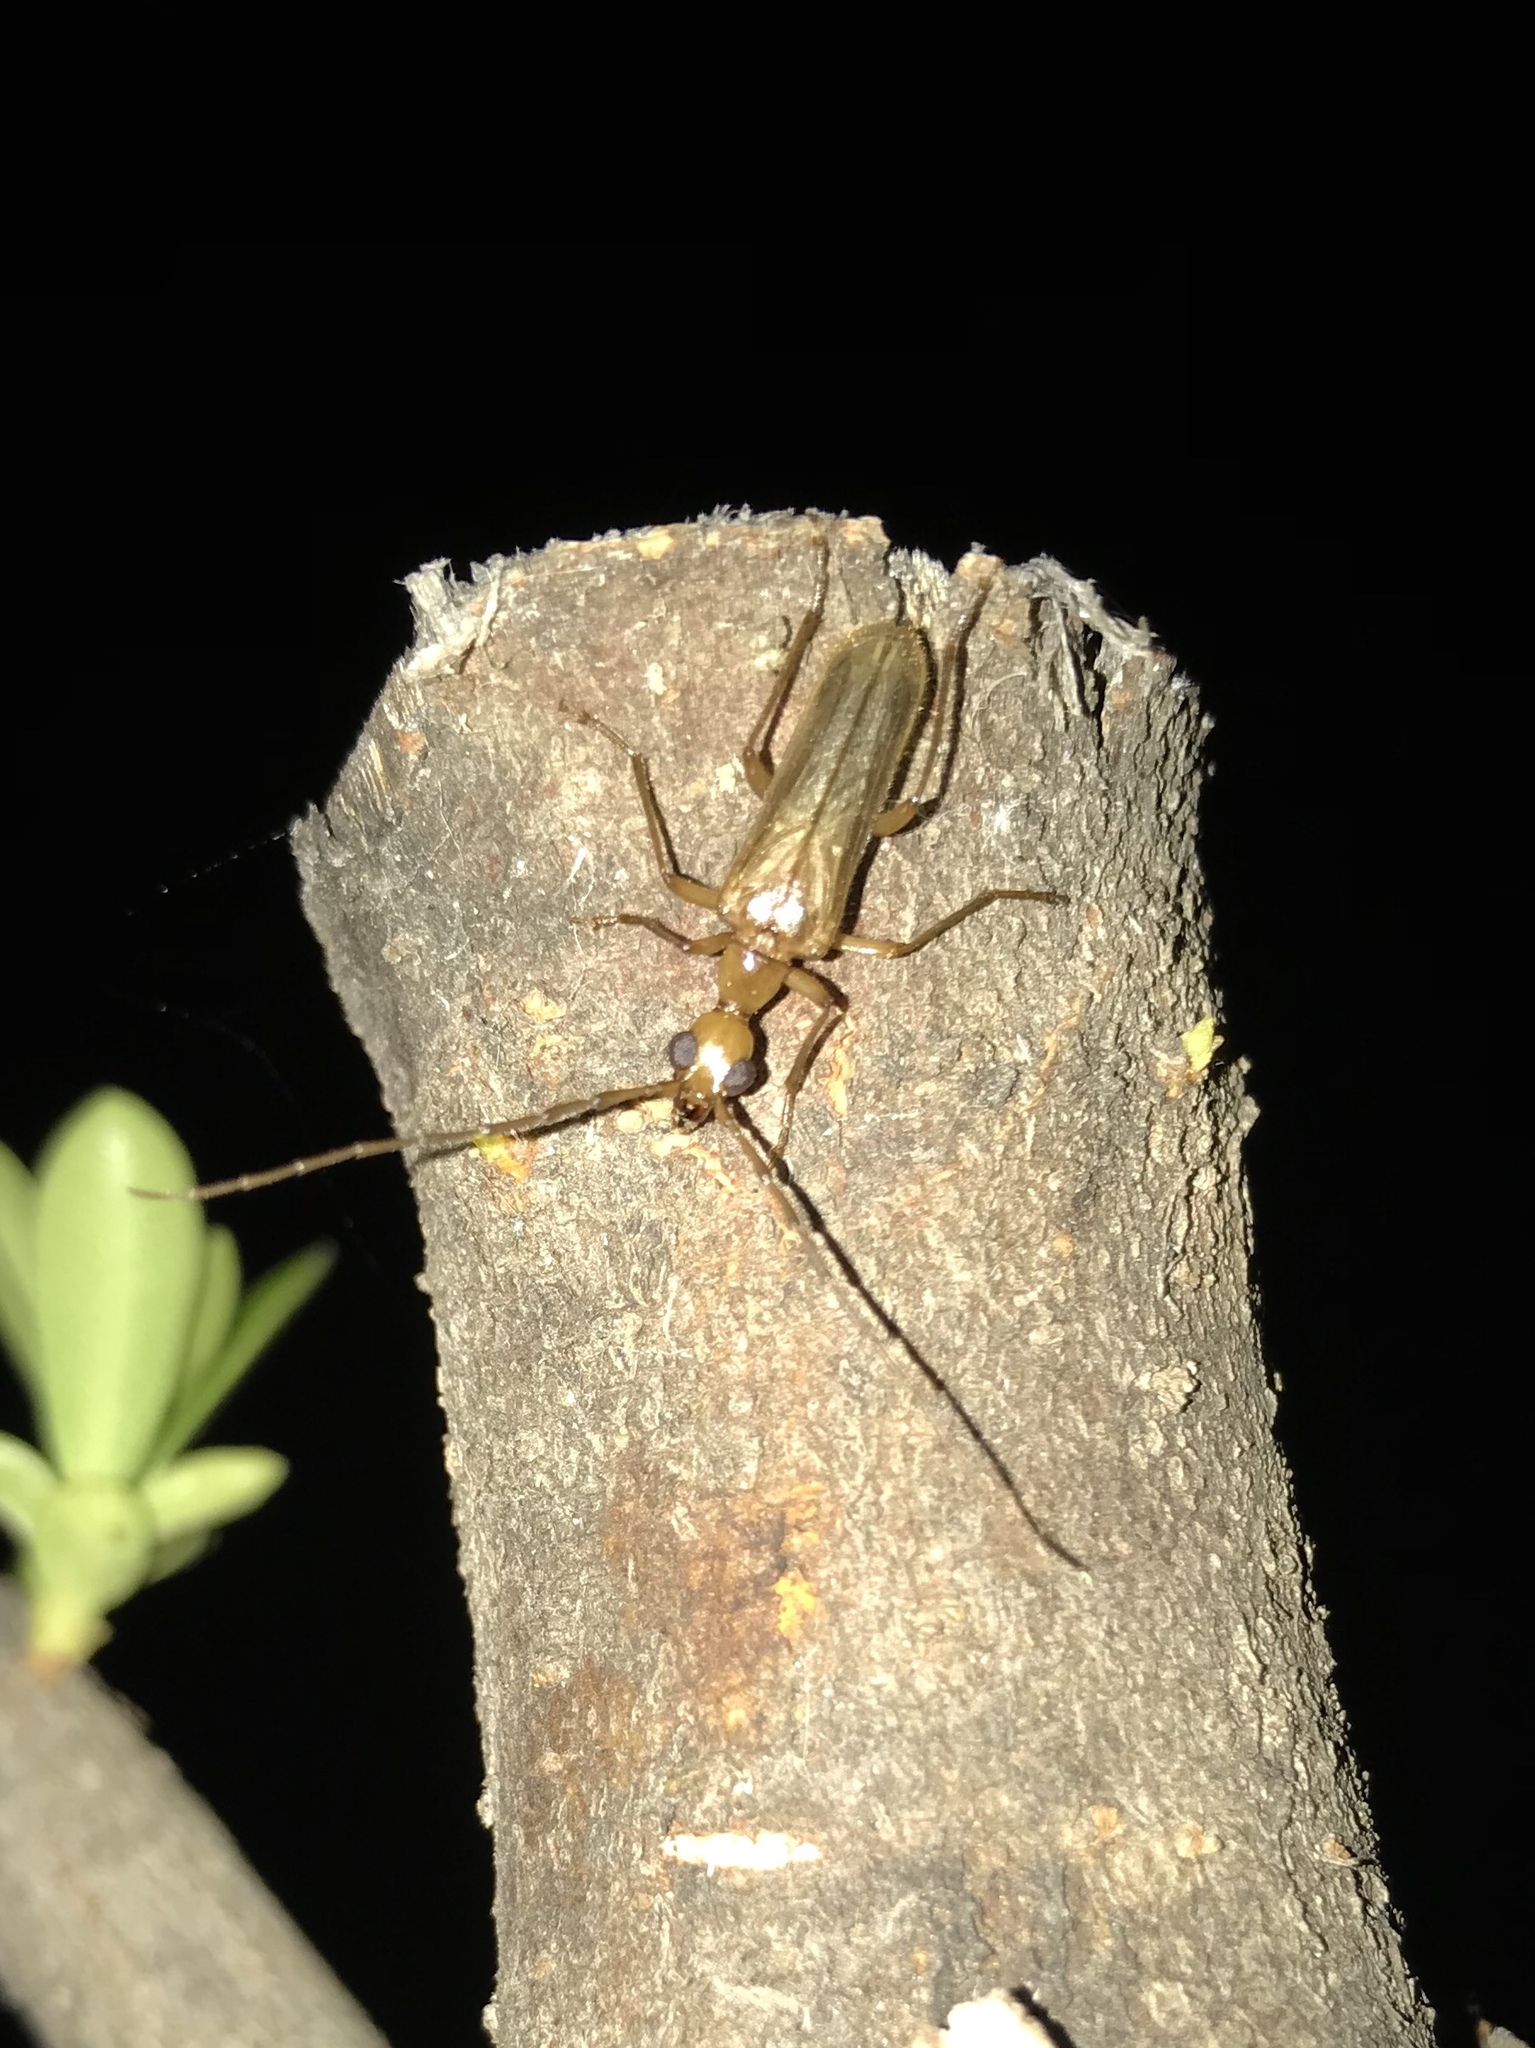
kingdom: Animalia
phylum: Arthropoda
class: Insecta
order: Coleoptera
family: Cerambycidae
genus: Vesperus
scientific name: Vesperus macropterus
